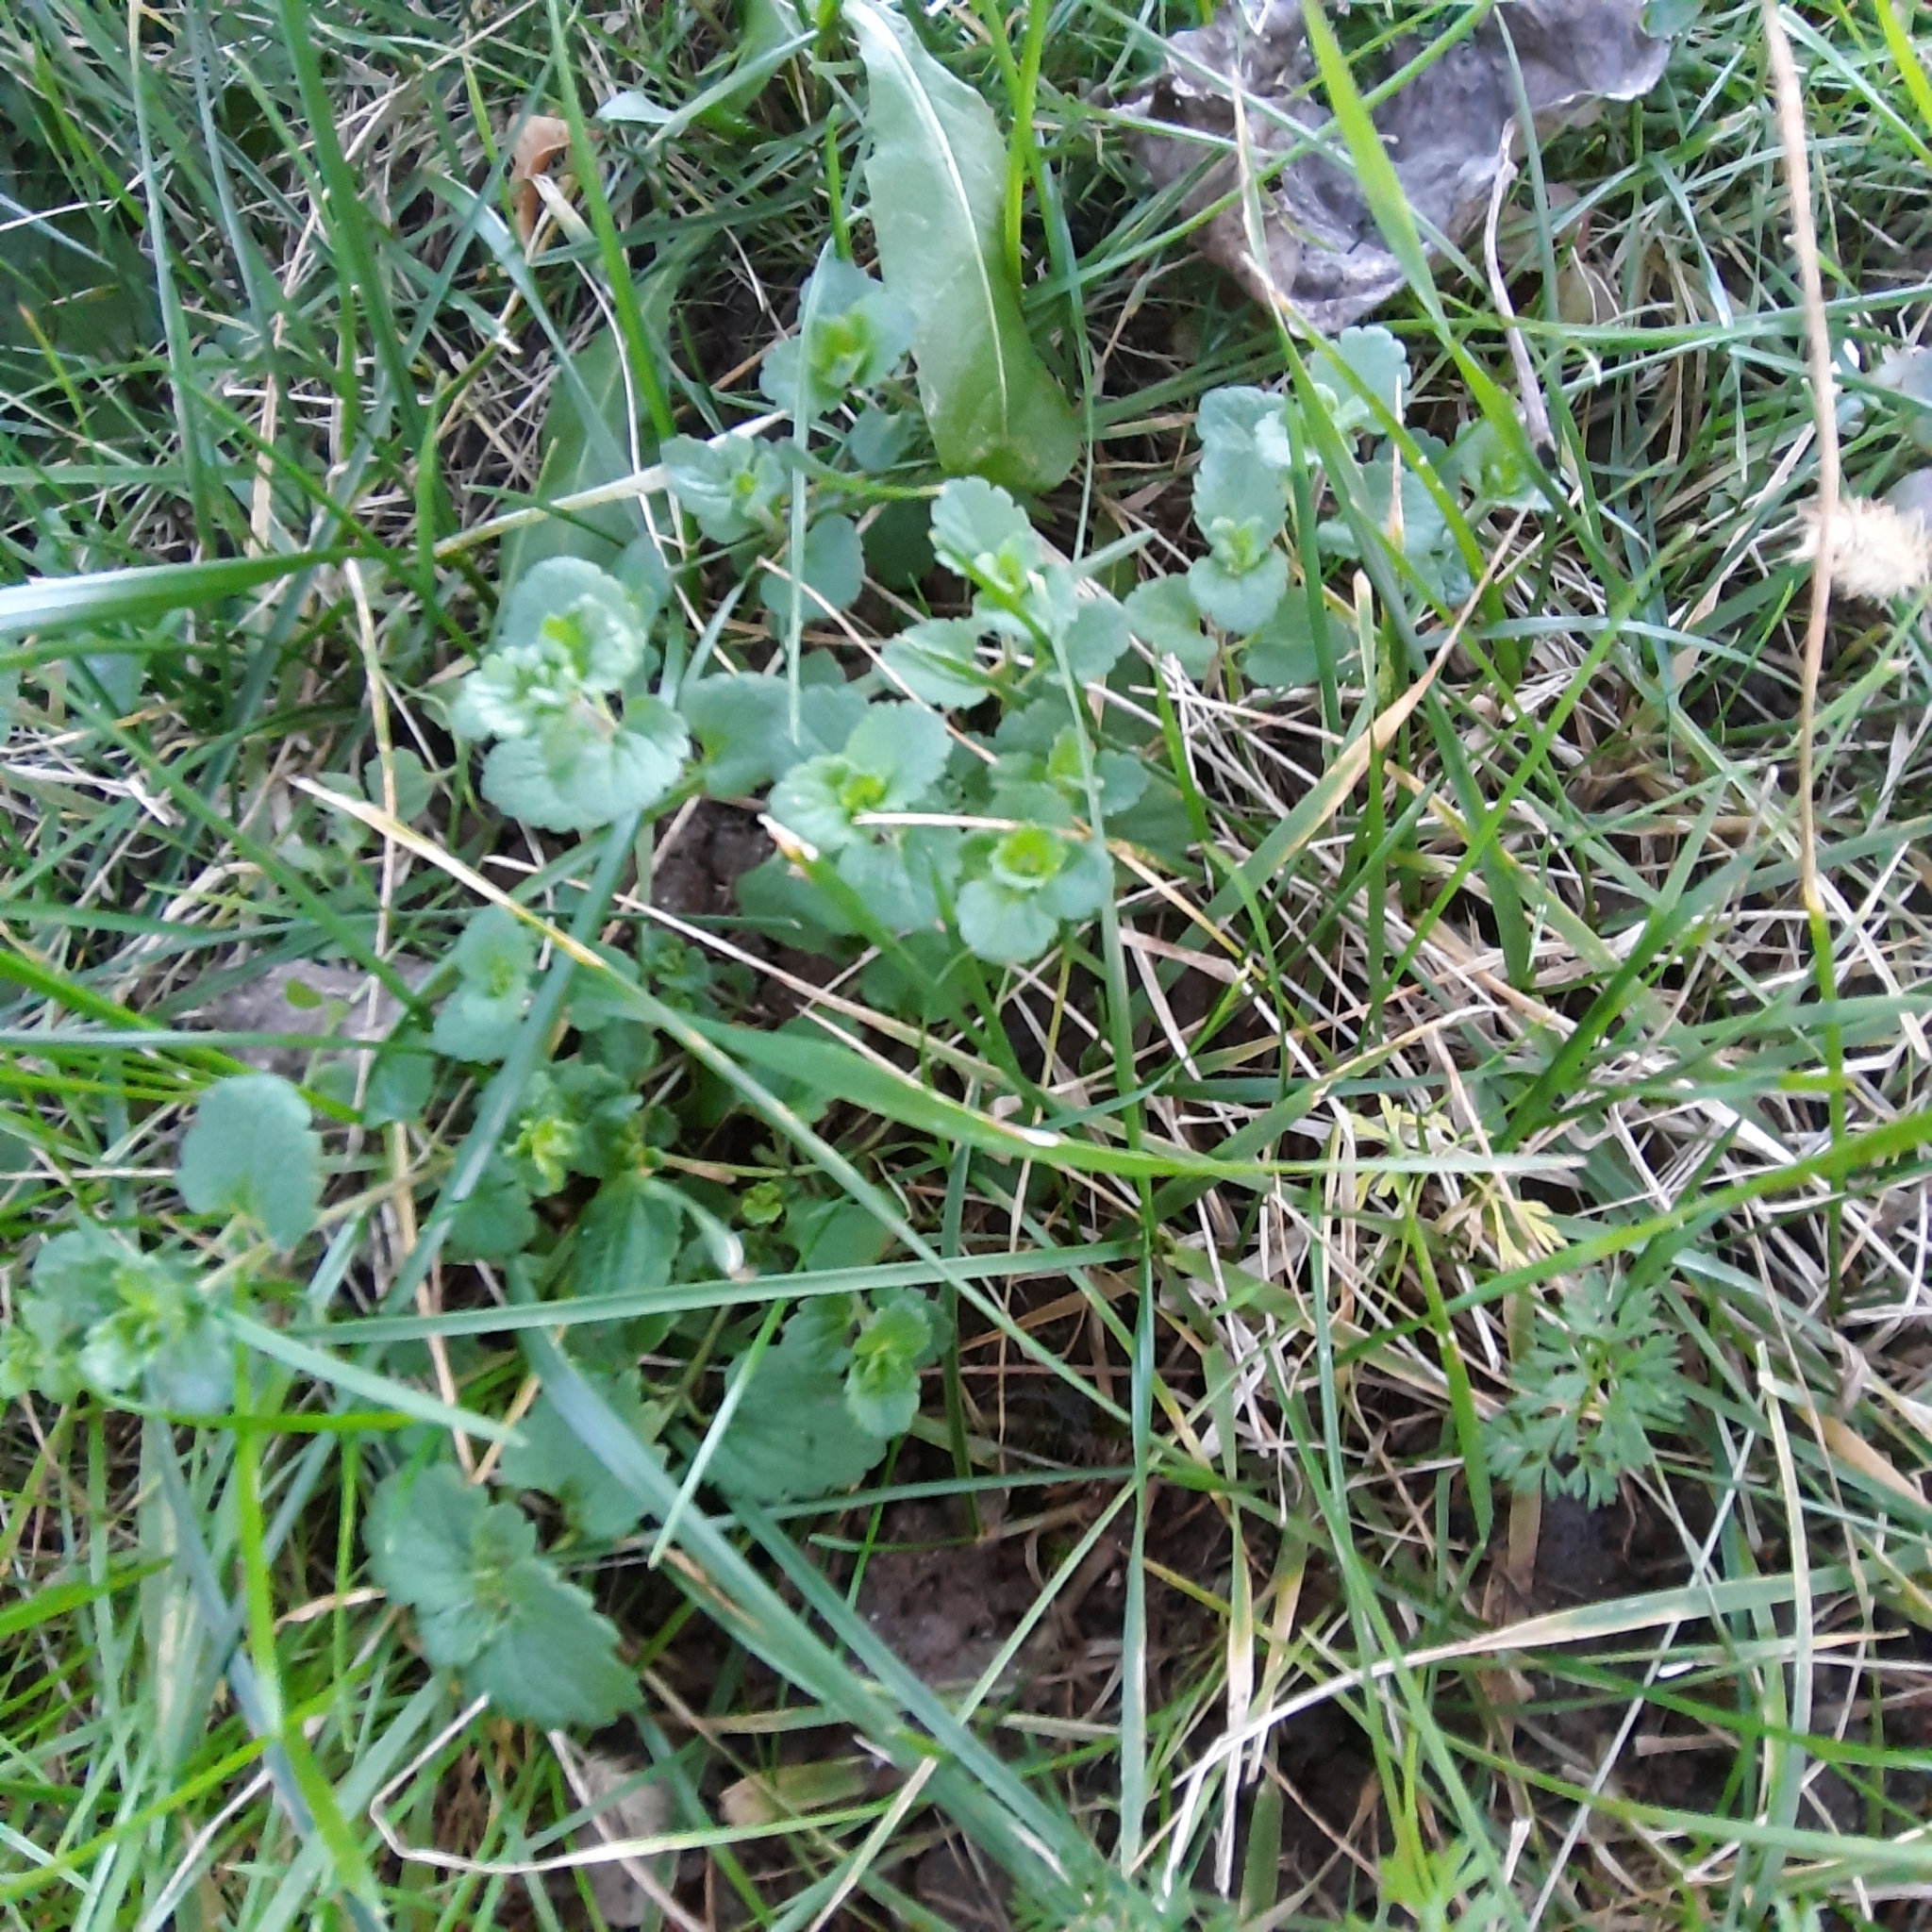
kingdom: Plantae
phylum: Tracheophyta
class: Magnoliopsida
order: Lamiales
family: Plantaginaceae
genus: Veronica
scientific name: Veronica persica
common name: Common field-speedwell
